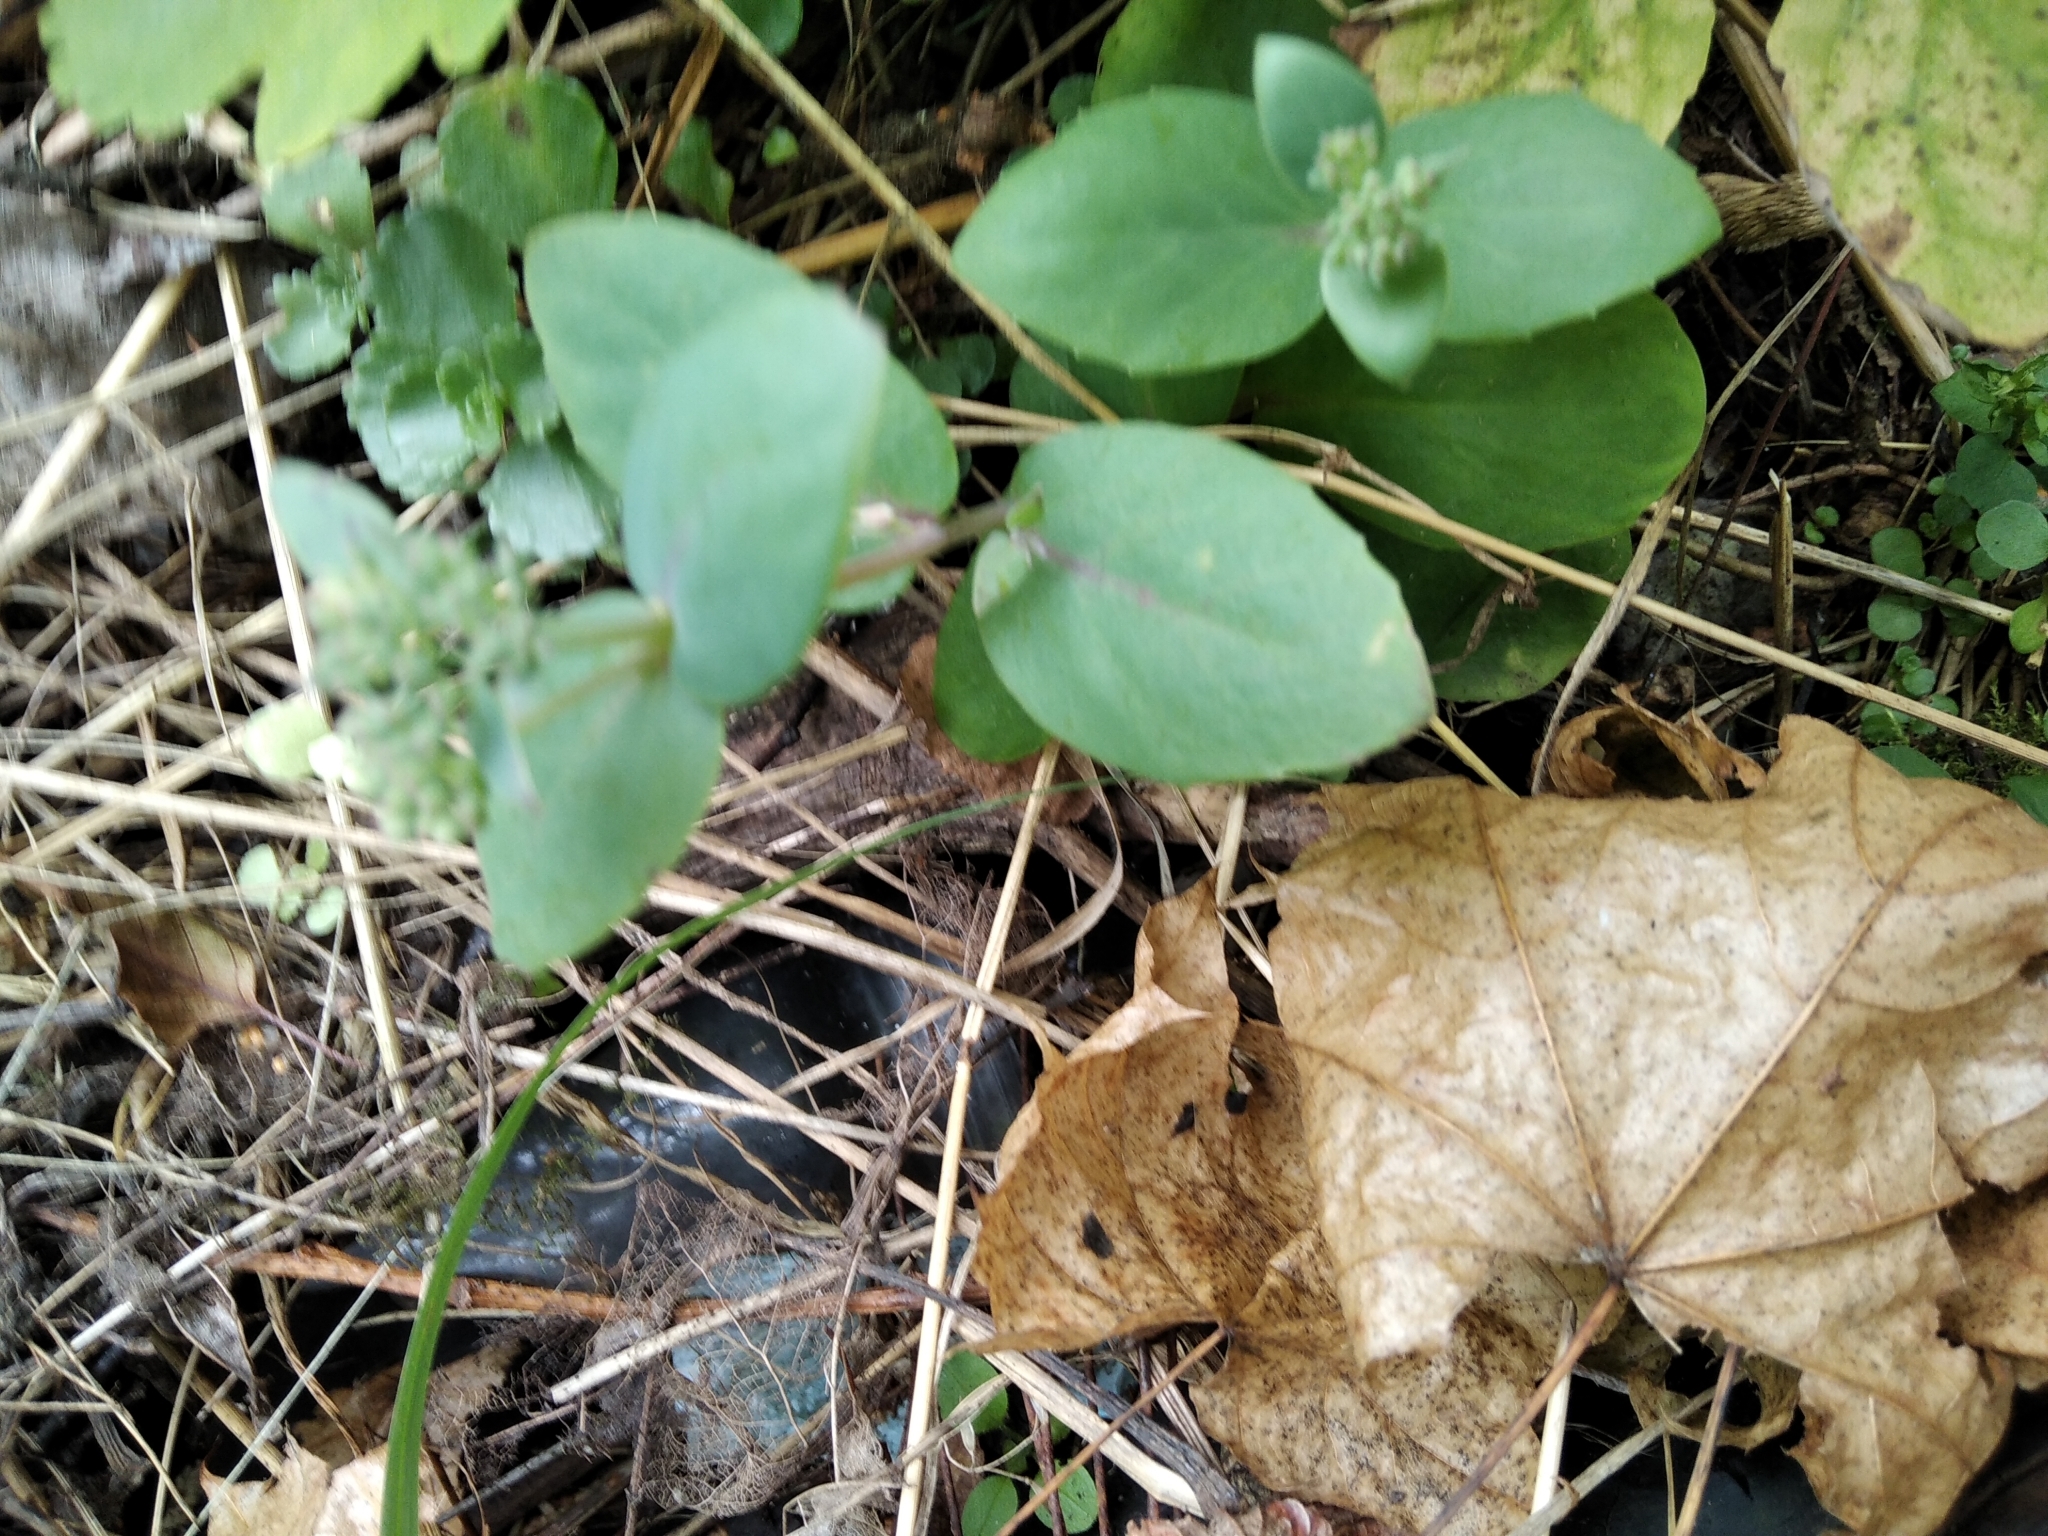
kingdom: Plantae
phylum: Tracheophyta
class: Magnoliopsida
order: Saxifragales
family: Crassulaceae
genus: Hylotelephium
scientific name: Hylotelephium maximum
